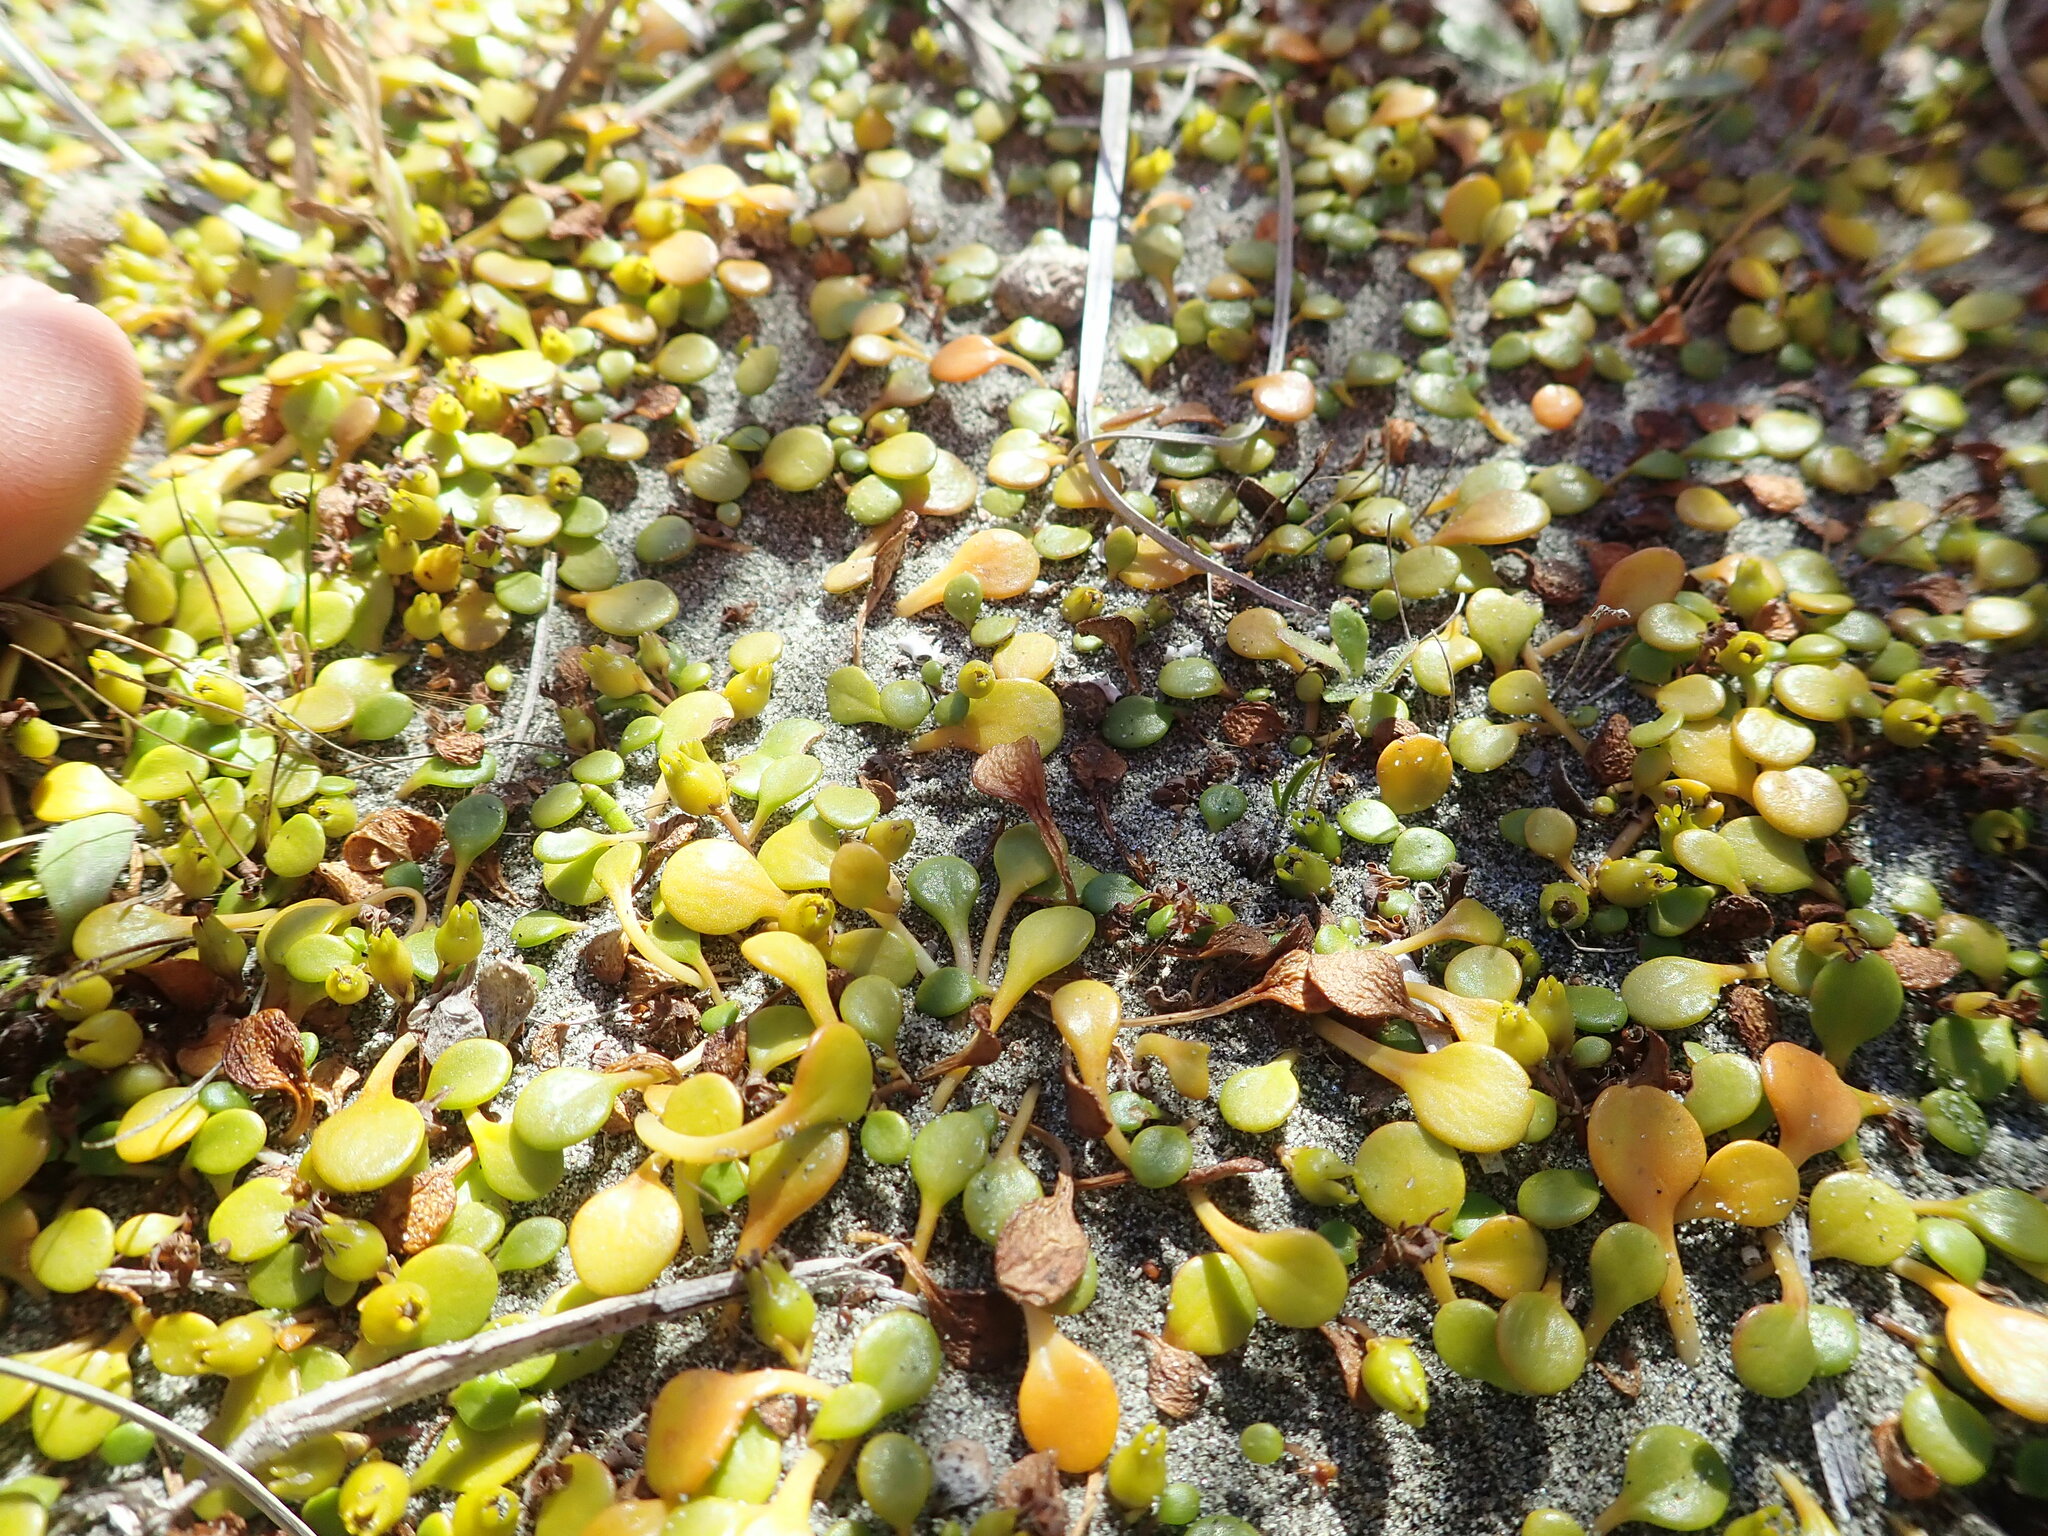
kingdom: Plantae
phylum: Tracheophyta
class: Magnoliopsida
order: Asterales
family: Goodeniaceae
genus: Goodenia
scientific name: Goodenia heenanii
